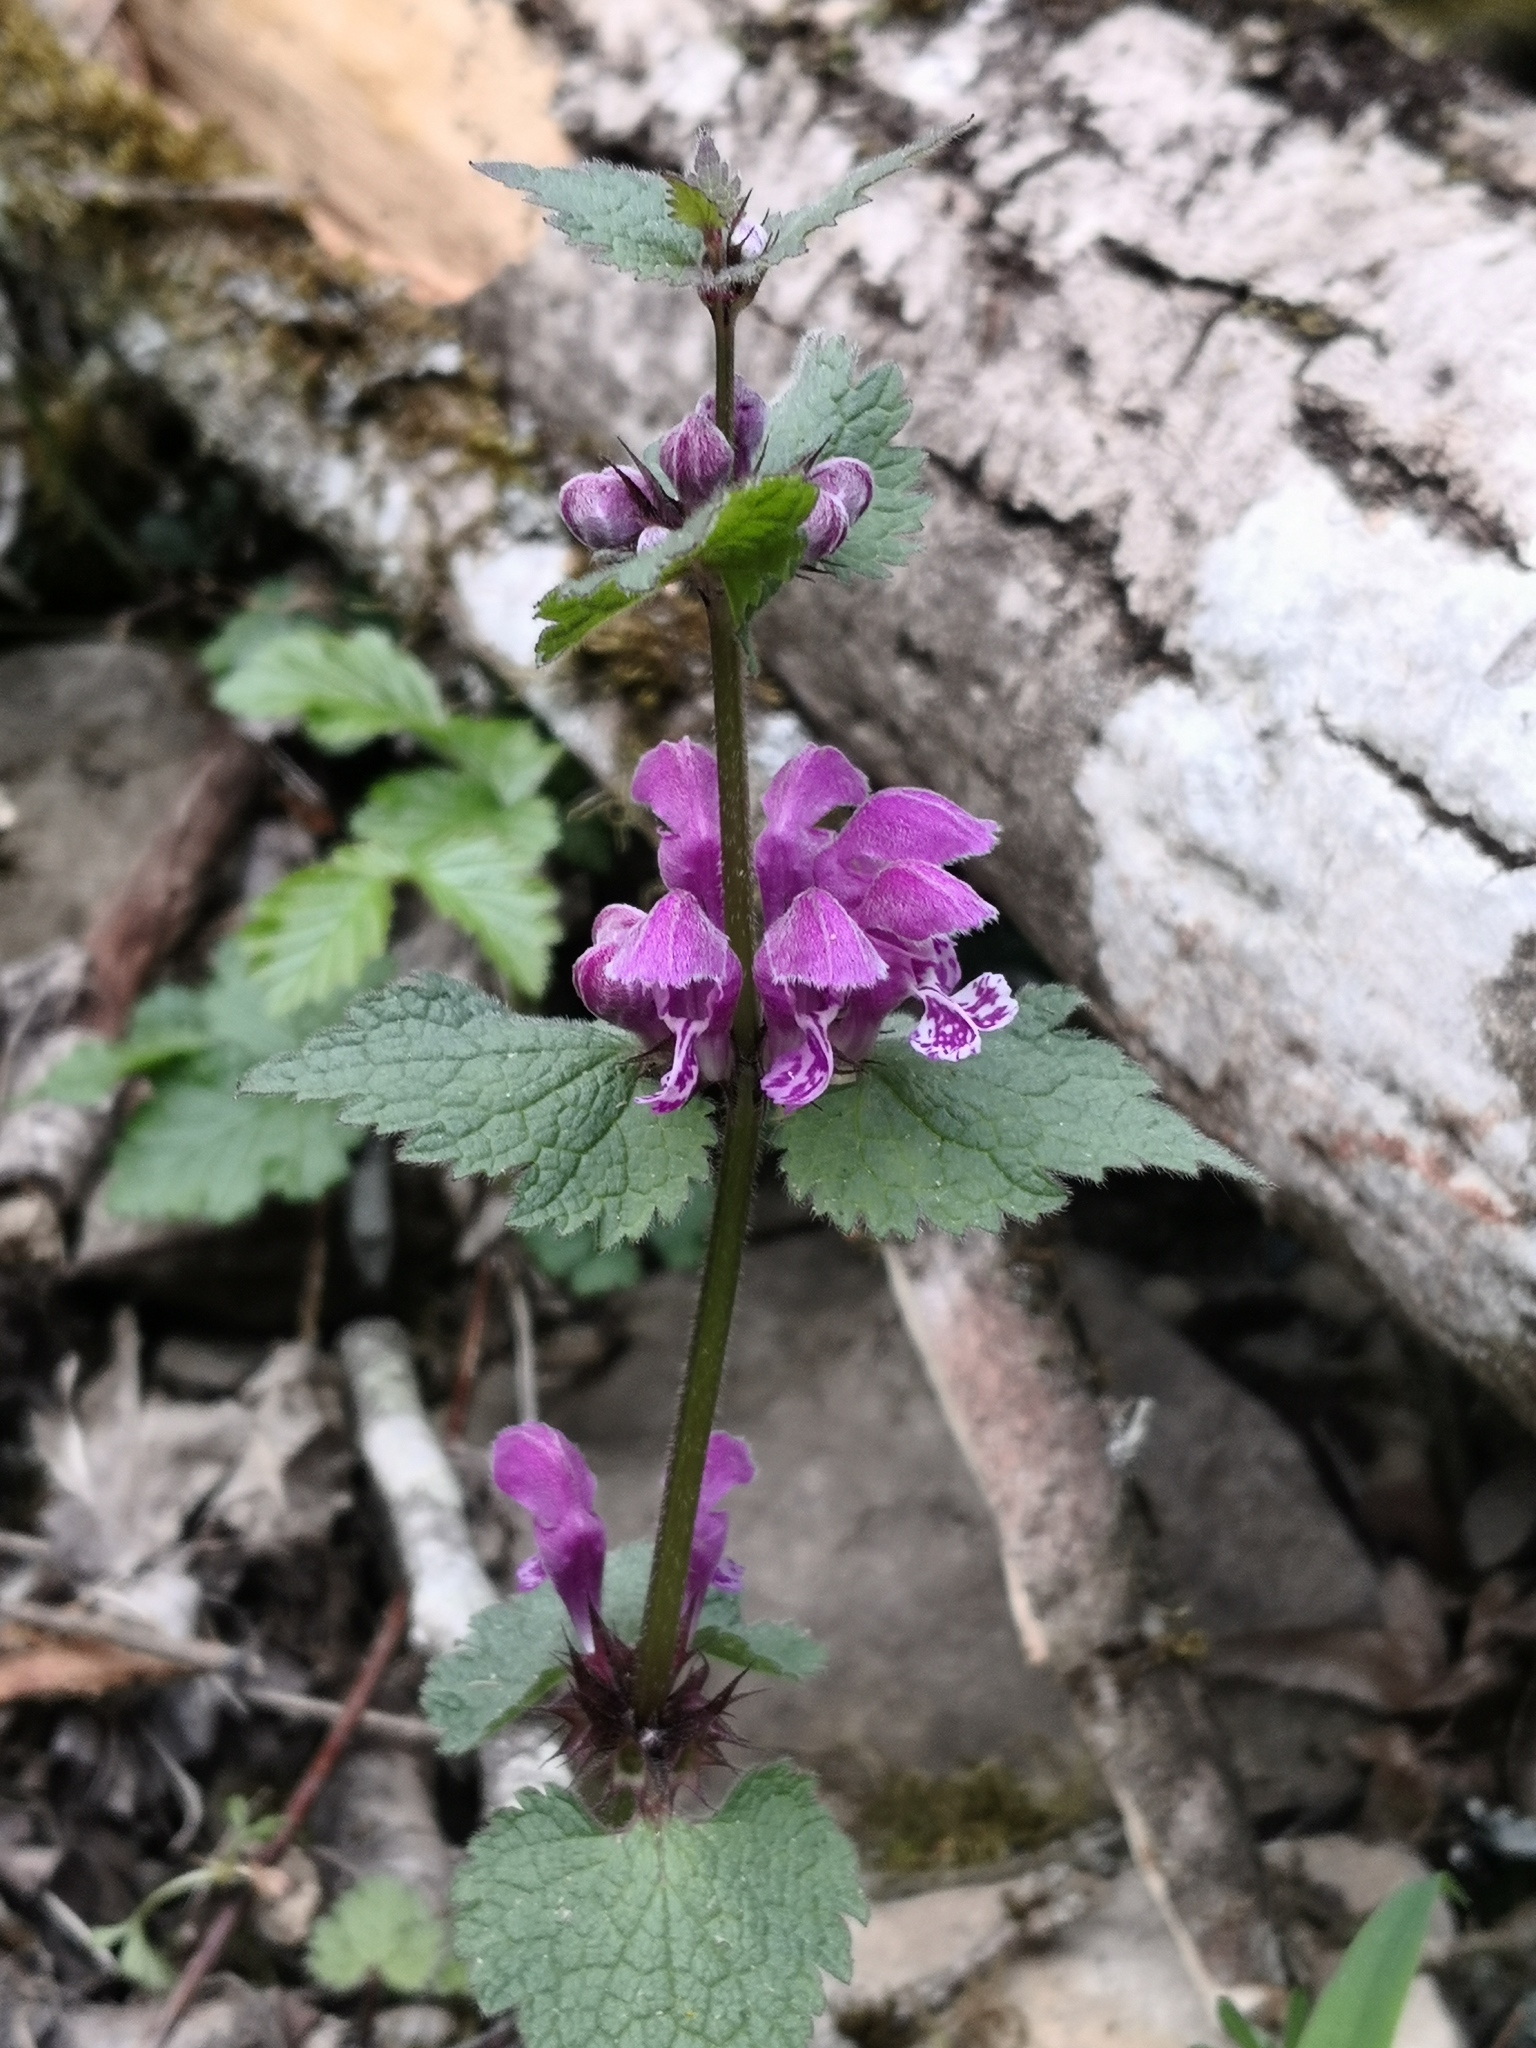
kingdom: Plantae
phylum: Tracheophyta
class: Magnoliopsida
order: Lamiales
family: Lamiaceae
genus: Lamium
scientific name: Lamium maculatum
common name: Spotted dead-nettle
